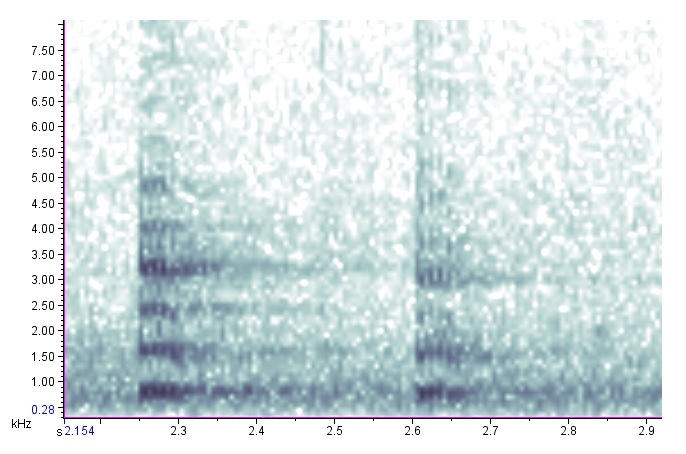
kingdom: Animalia
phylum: Chordata
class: Aves
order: Gruiformes
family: Rallidae
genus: Fulica
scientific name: Fulica americana
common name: American coot
